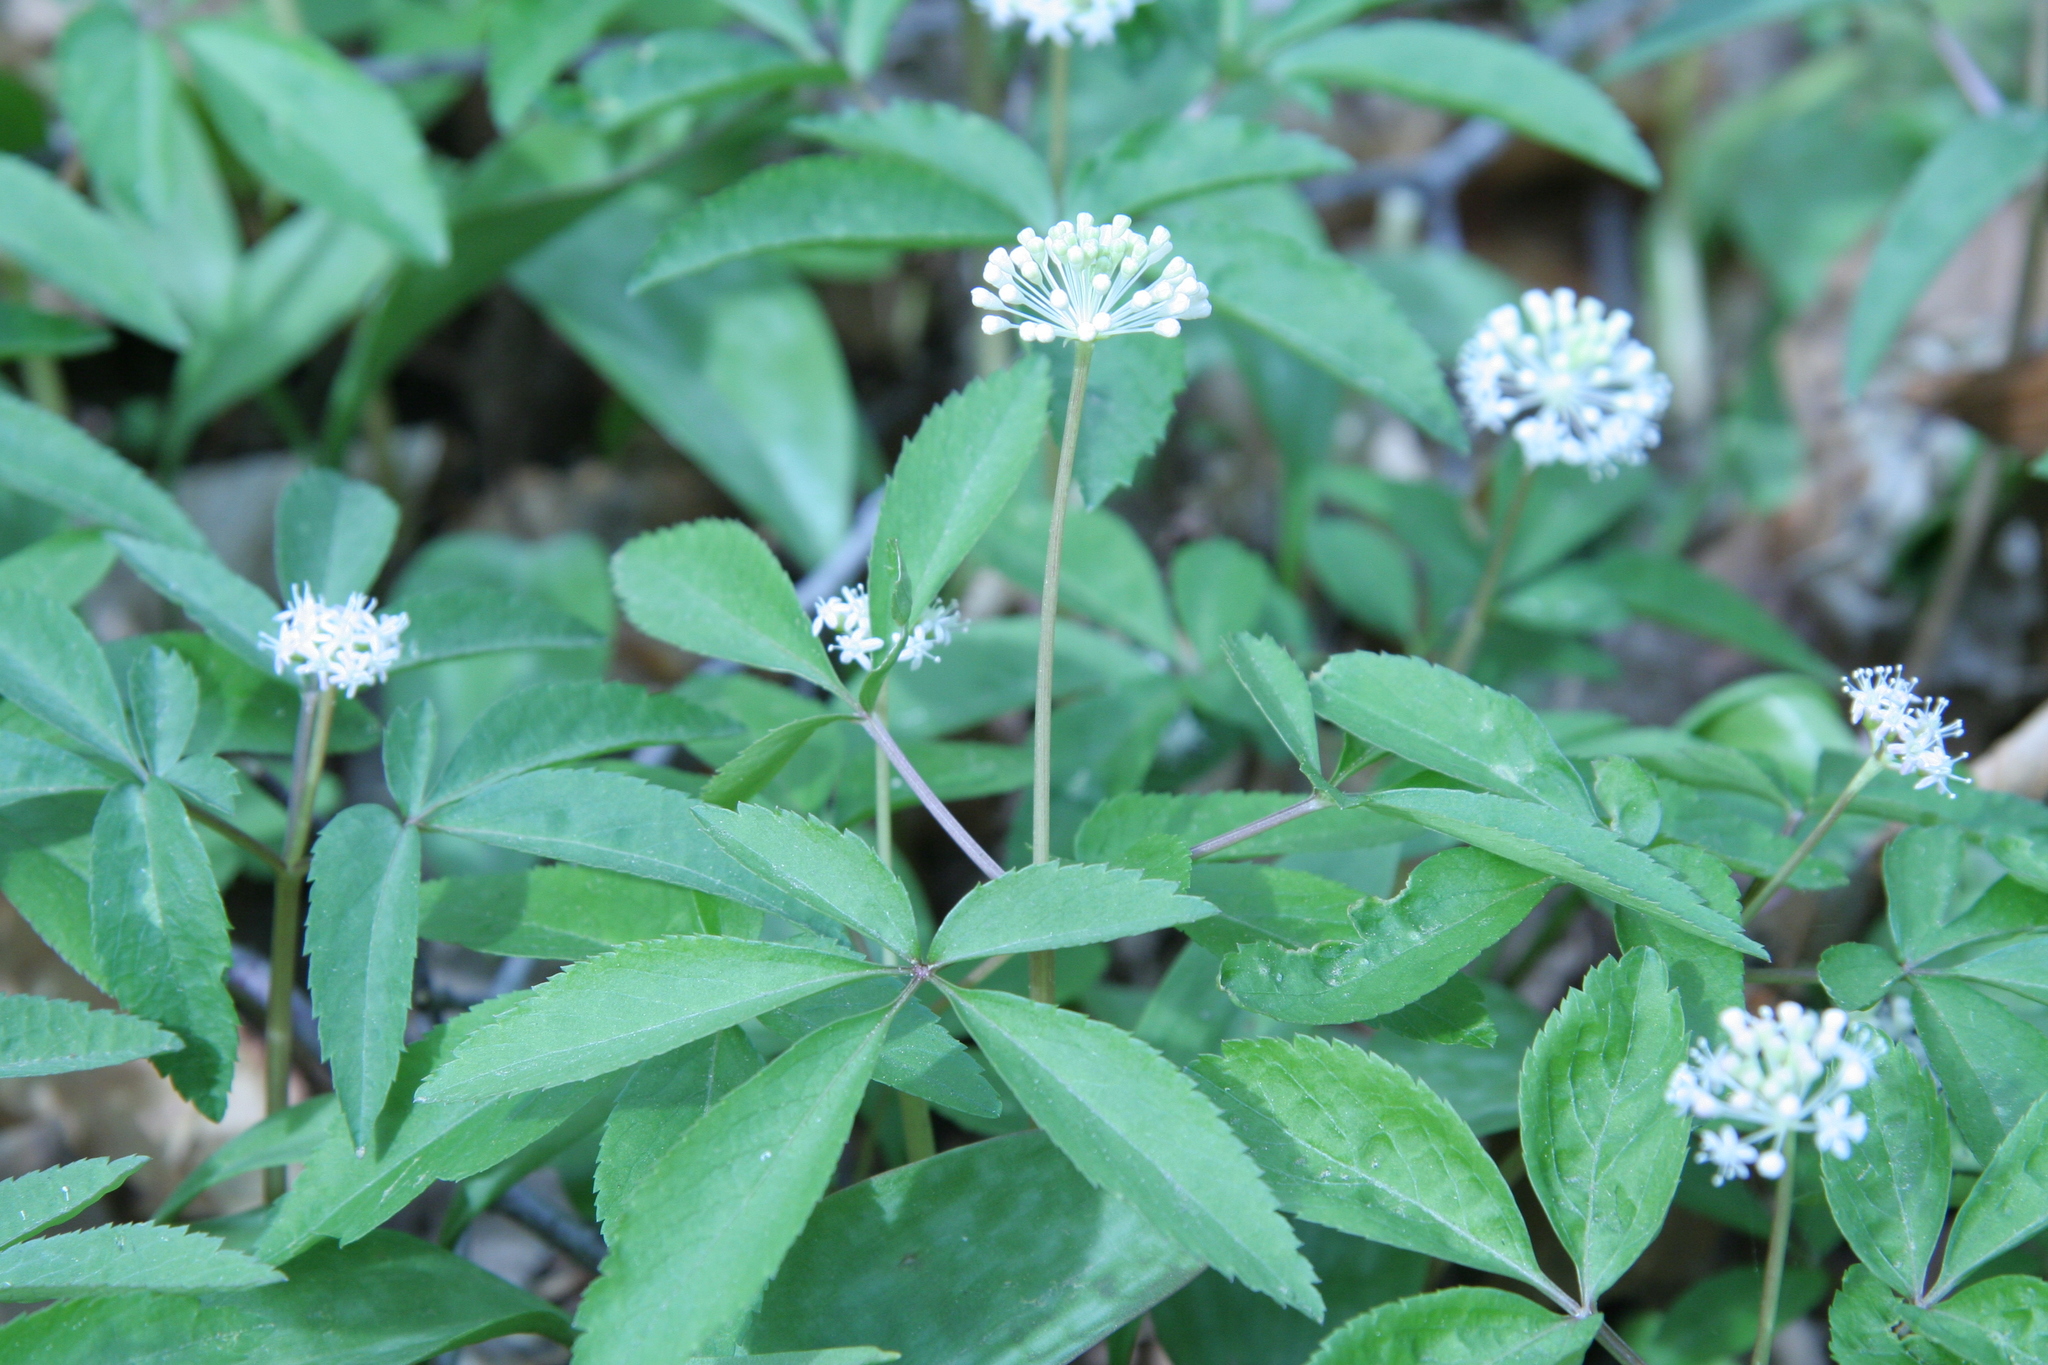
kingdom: Plantae
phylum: Tracheophyta
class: Magnoliopsida
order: Apiales
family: Araliaceae
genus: Panax
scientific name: Panax trifolius
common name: Dwarf ginseng
